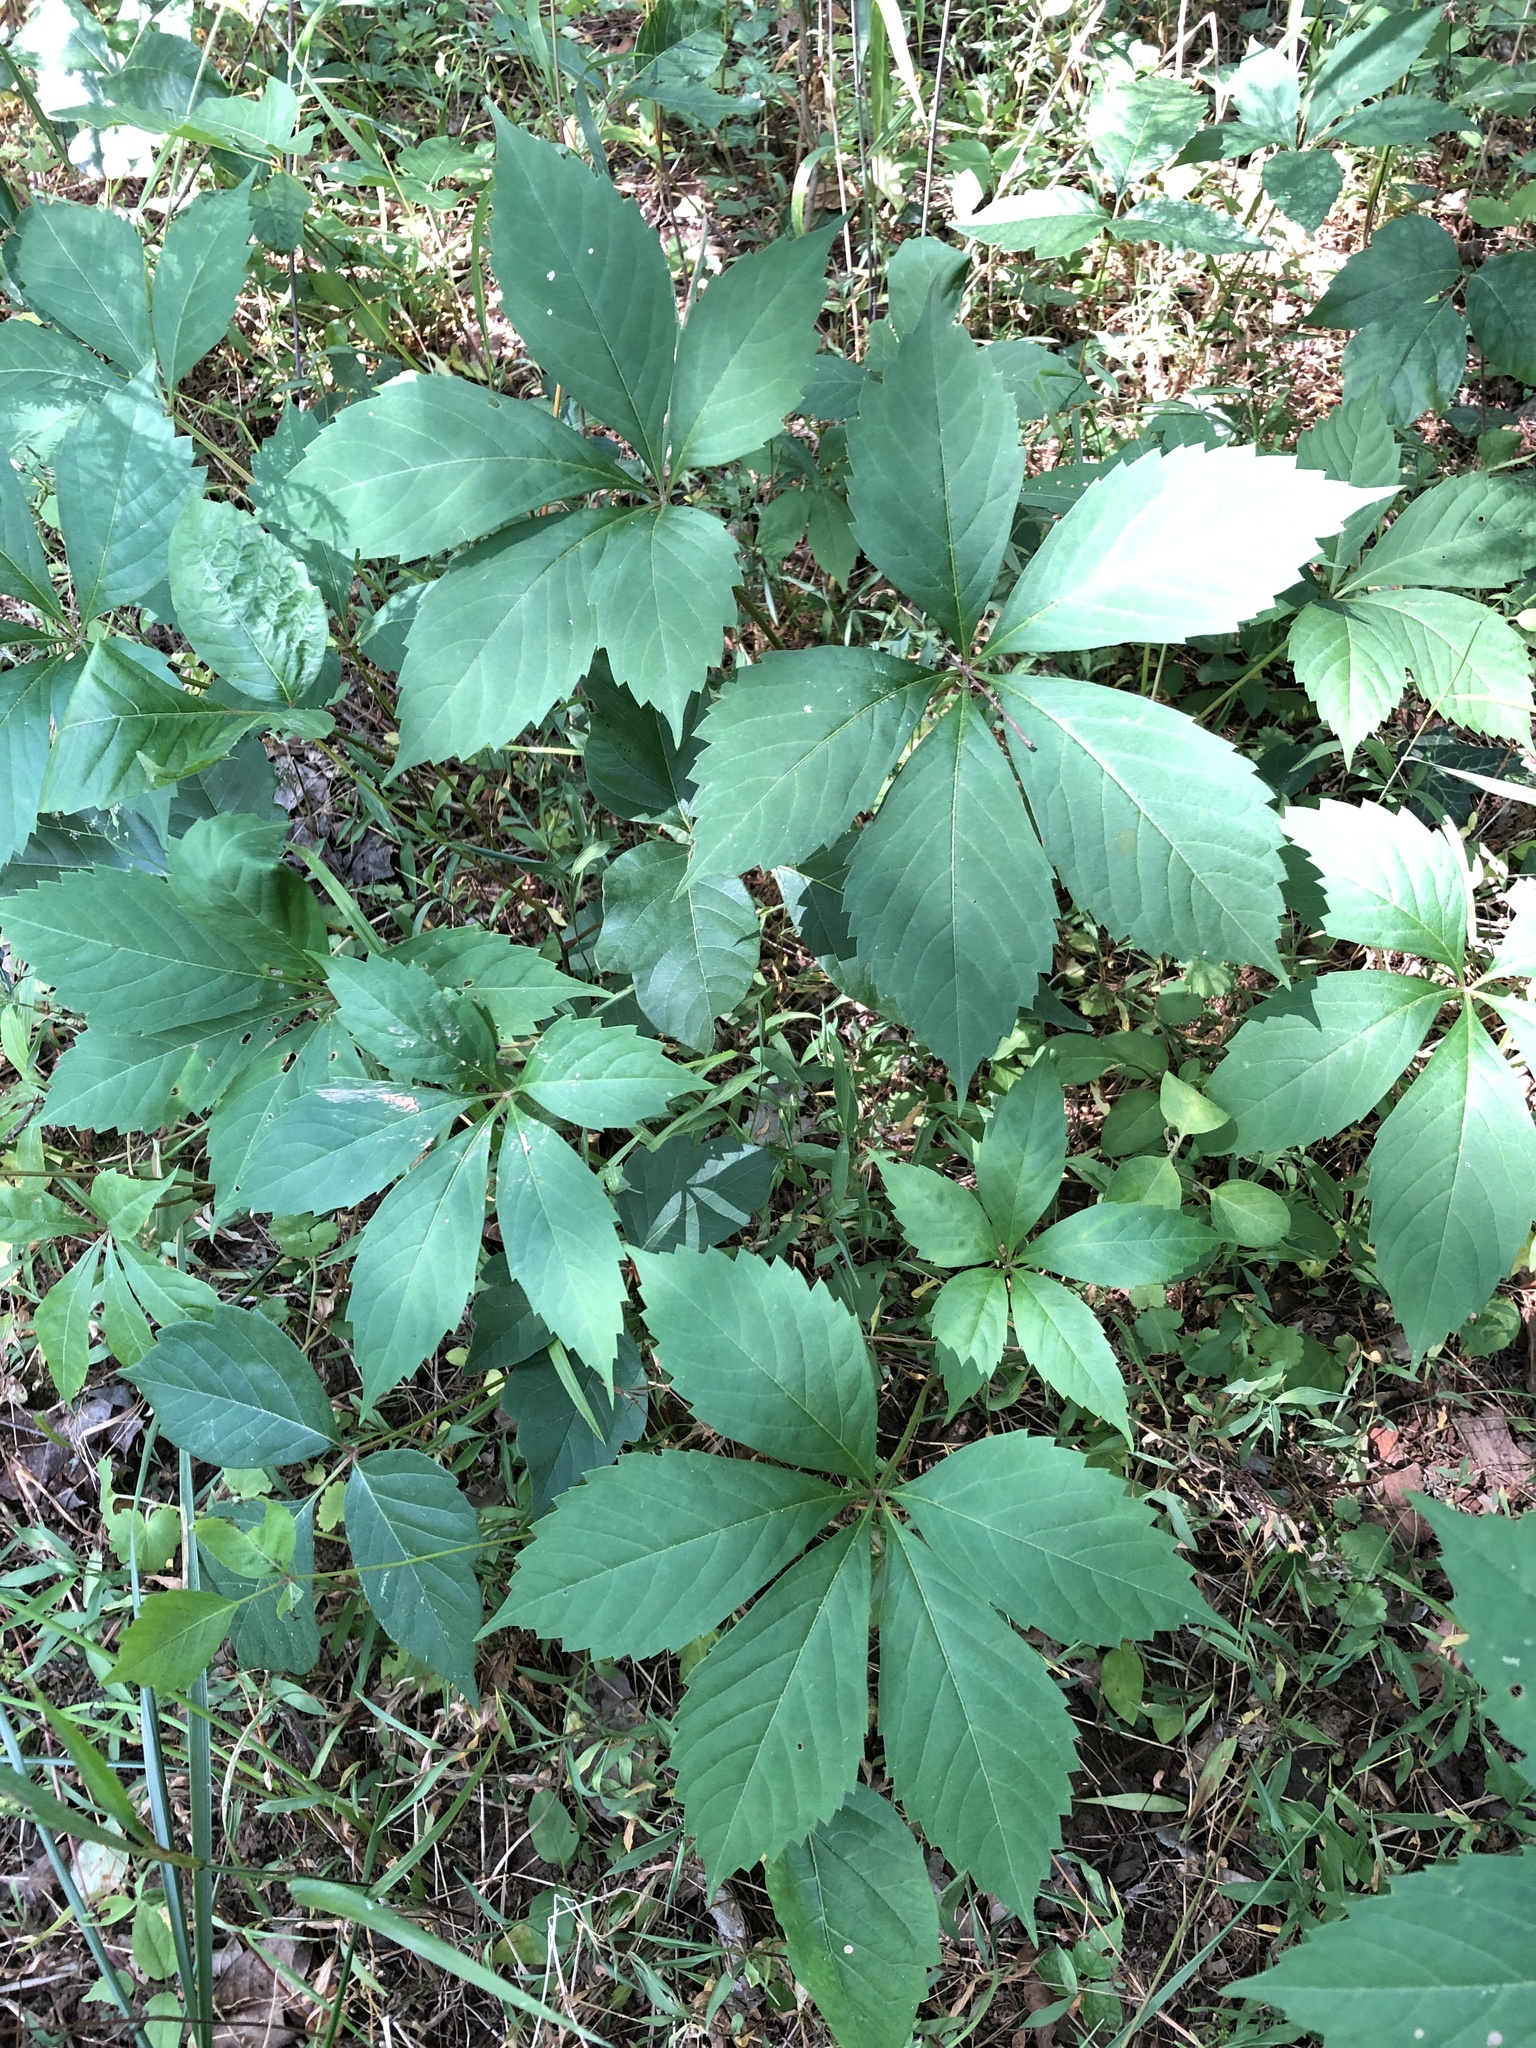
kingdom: Plantae
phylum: Tracheophyta
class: Magnoliopsida
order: Vitales
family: Vitaceae
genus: Parthenocissus
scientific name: Parthenocissus quinquefolia
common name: Virginia-creeper
